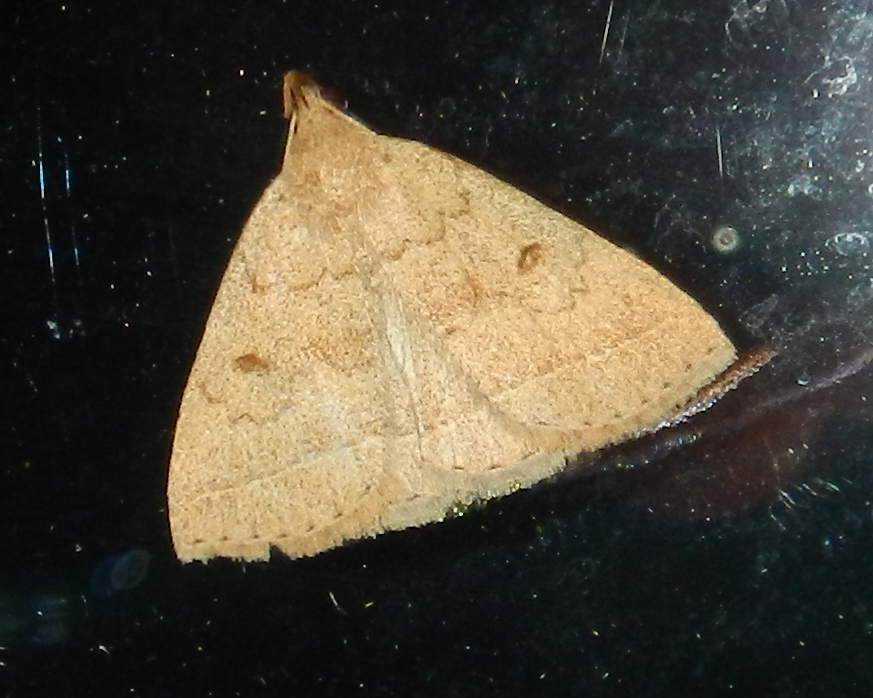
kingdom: Animalia
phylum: Arthropoda
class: Insecta
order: Lepidoptera
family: Erebidae
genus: Zanclognatha
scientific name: Zanclognatha jacchusalis
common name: Yellowish zanclognatha
